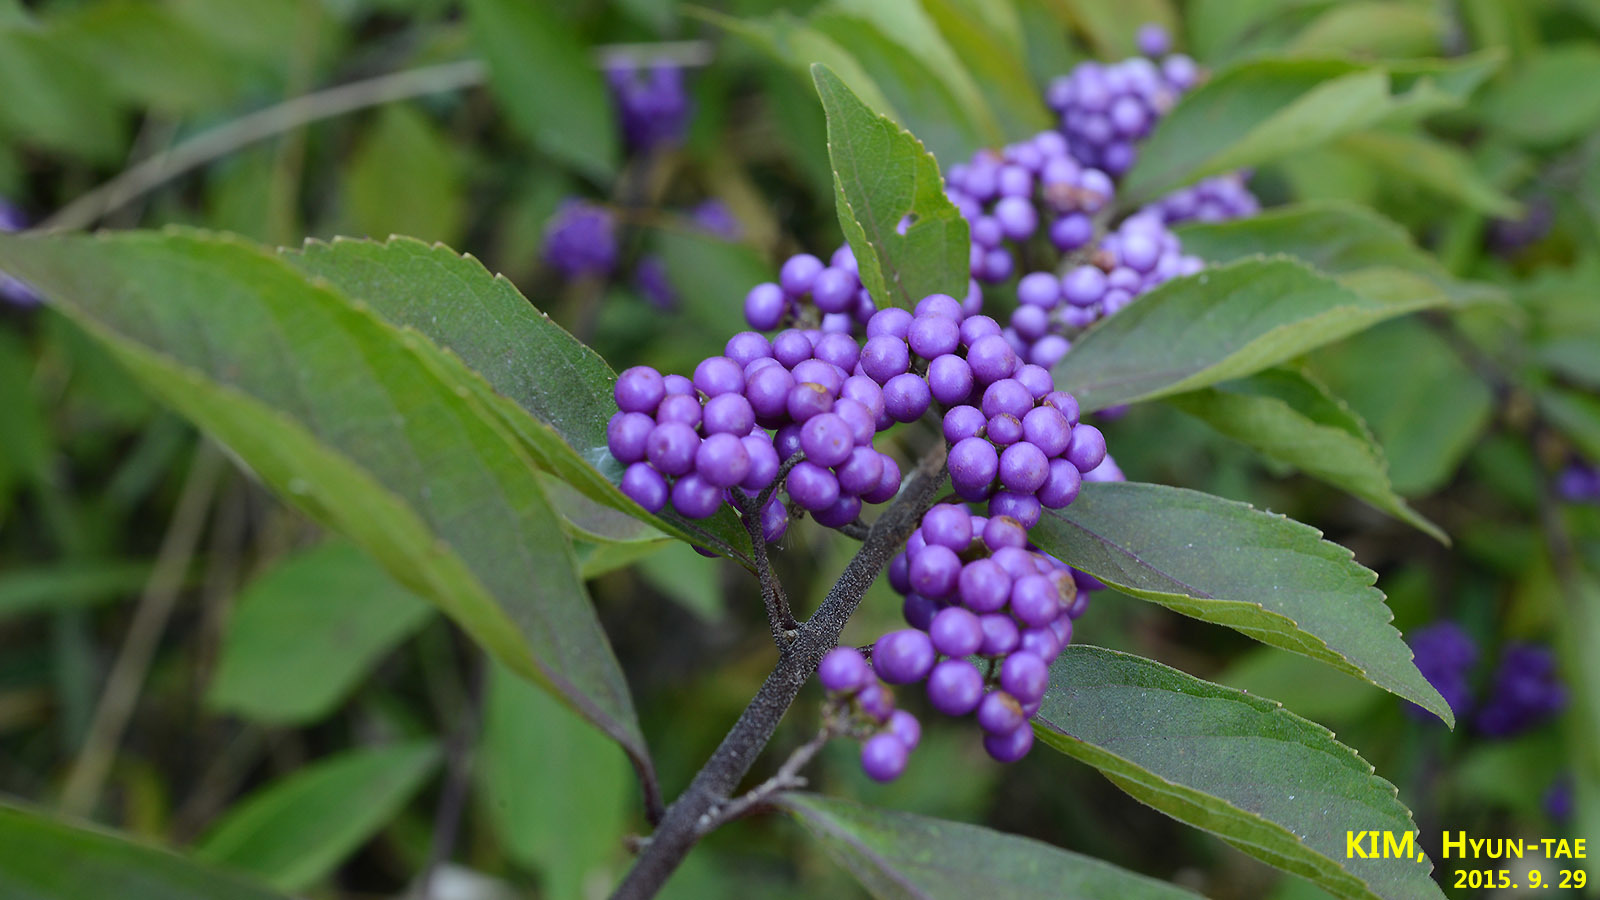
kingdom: Plantae
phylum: Tracheophyta
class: Magnoliopsida
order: Lamiales
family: Lamiaceae
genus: Callicarpa
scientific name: Callicarpa dichotoma
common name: Purple beauty-berry
